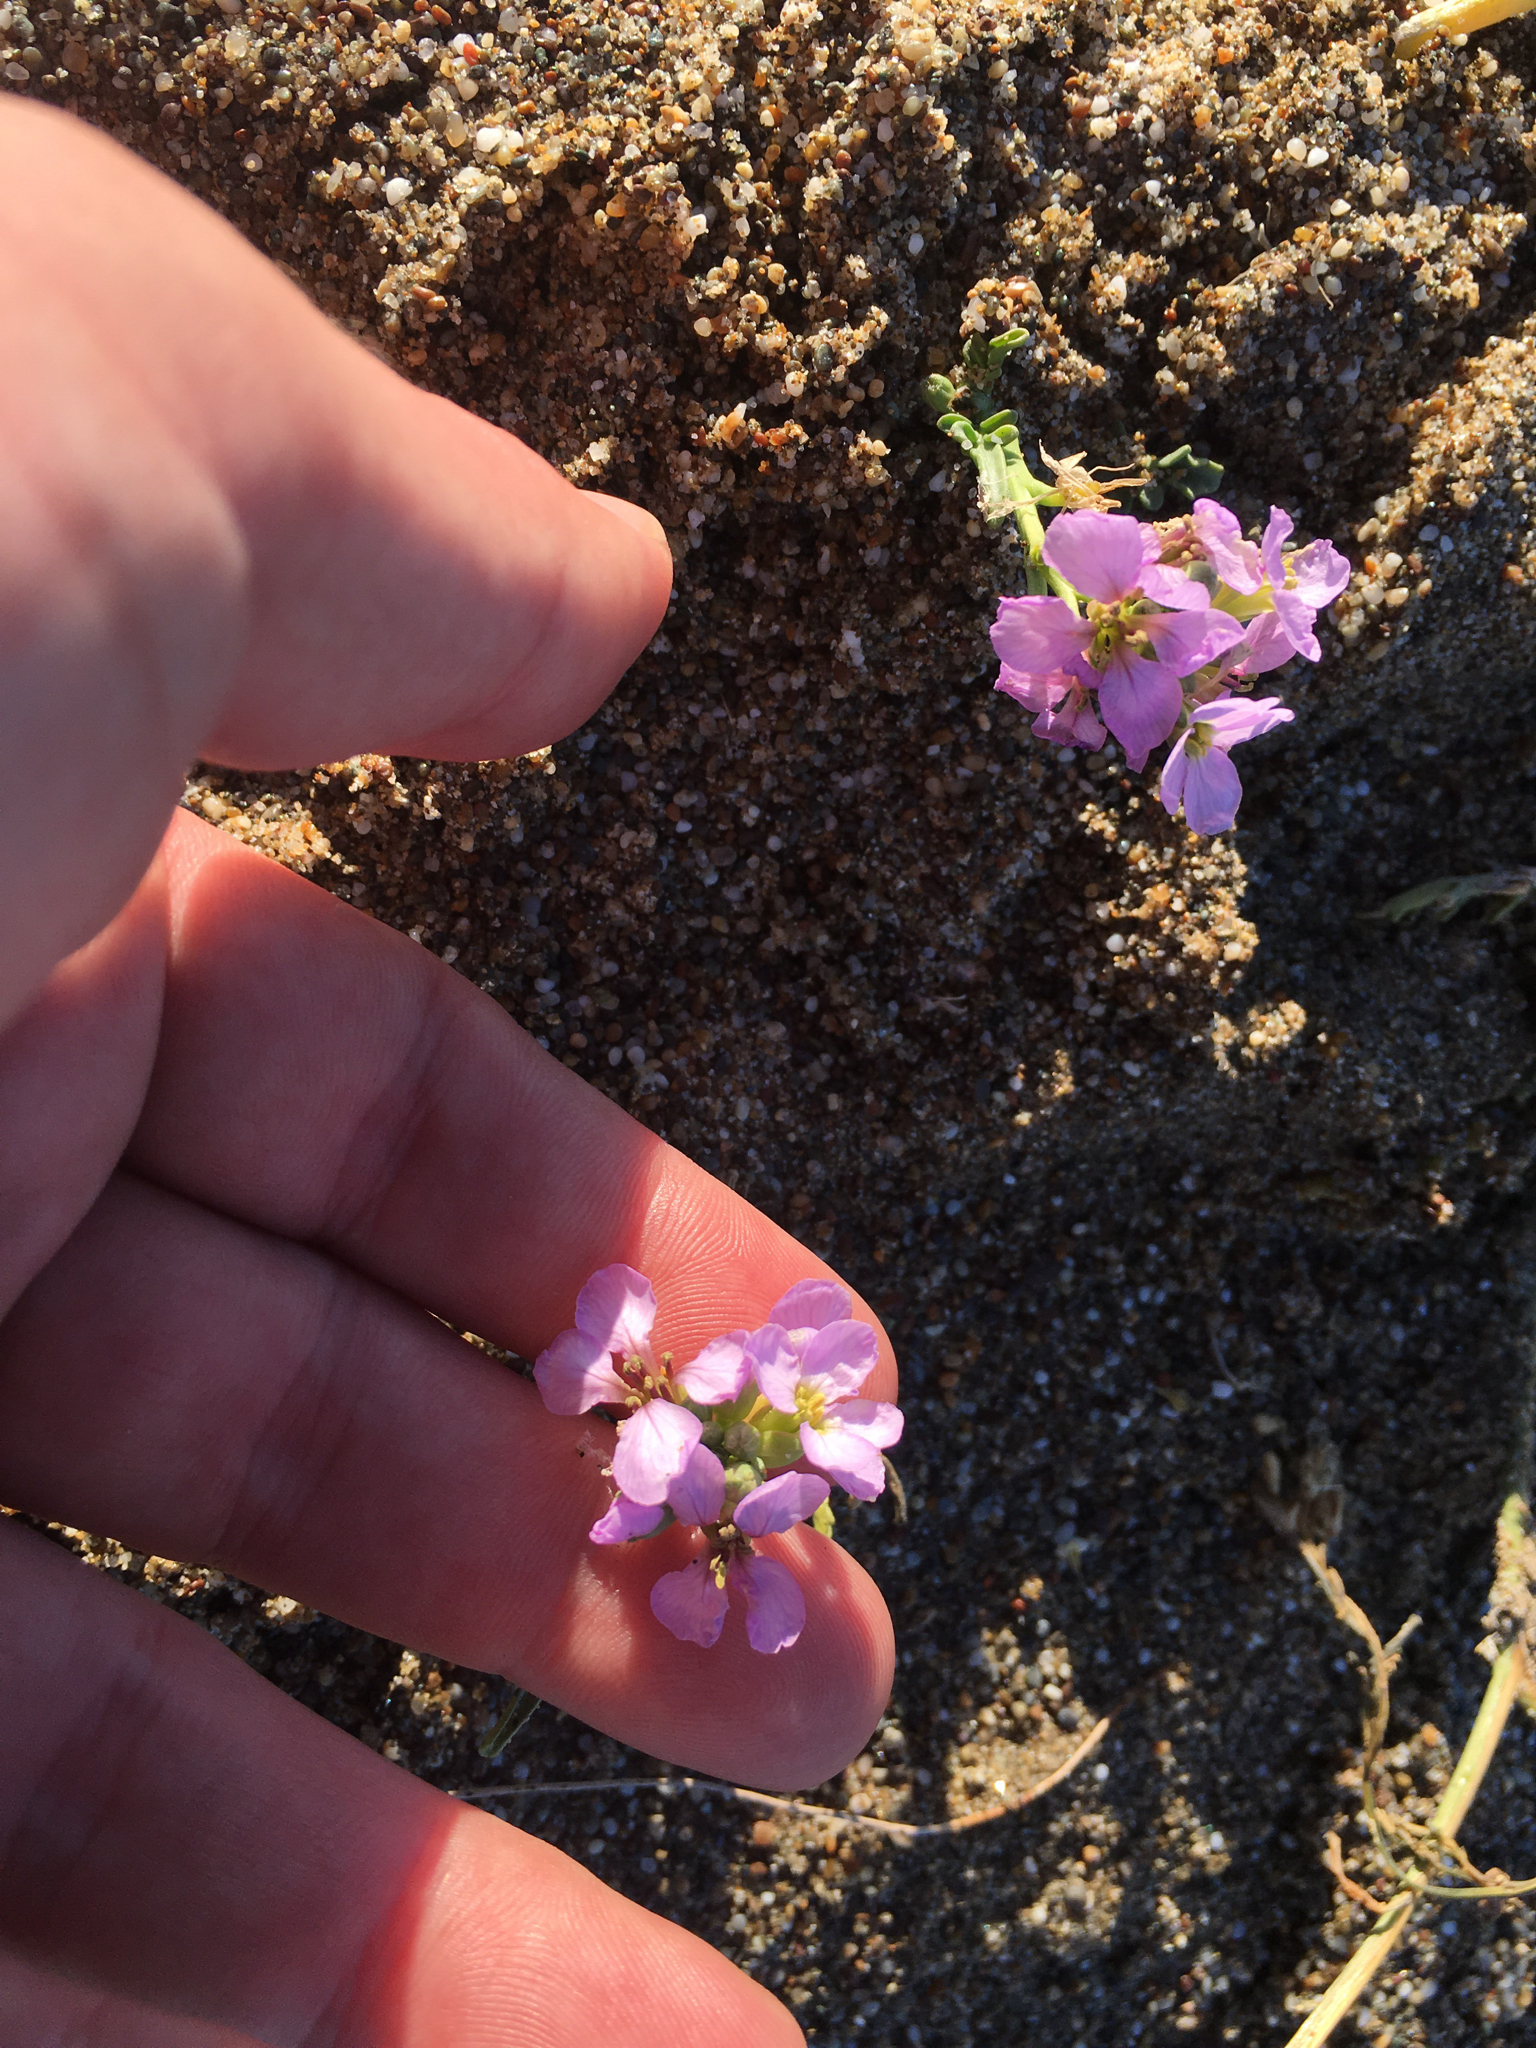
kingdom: Plantae
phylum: Tracheophyta
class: Magnoliopsida
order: Brassicales
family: Brassicaceae
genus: Cakile
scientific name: Cakile maritima
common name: Sea rocket
